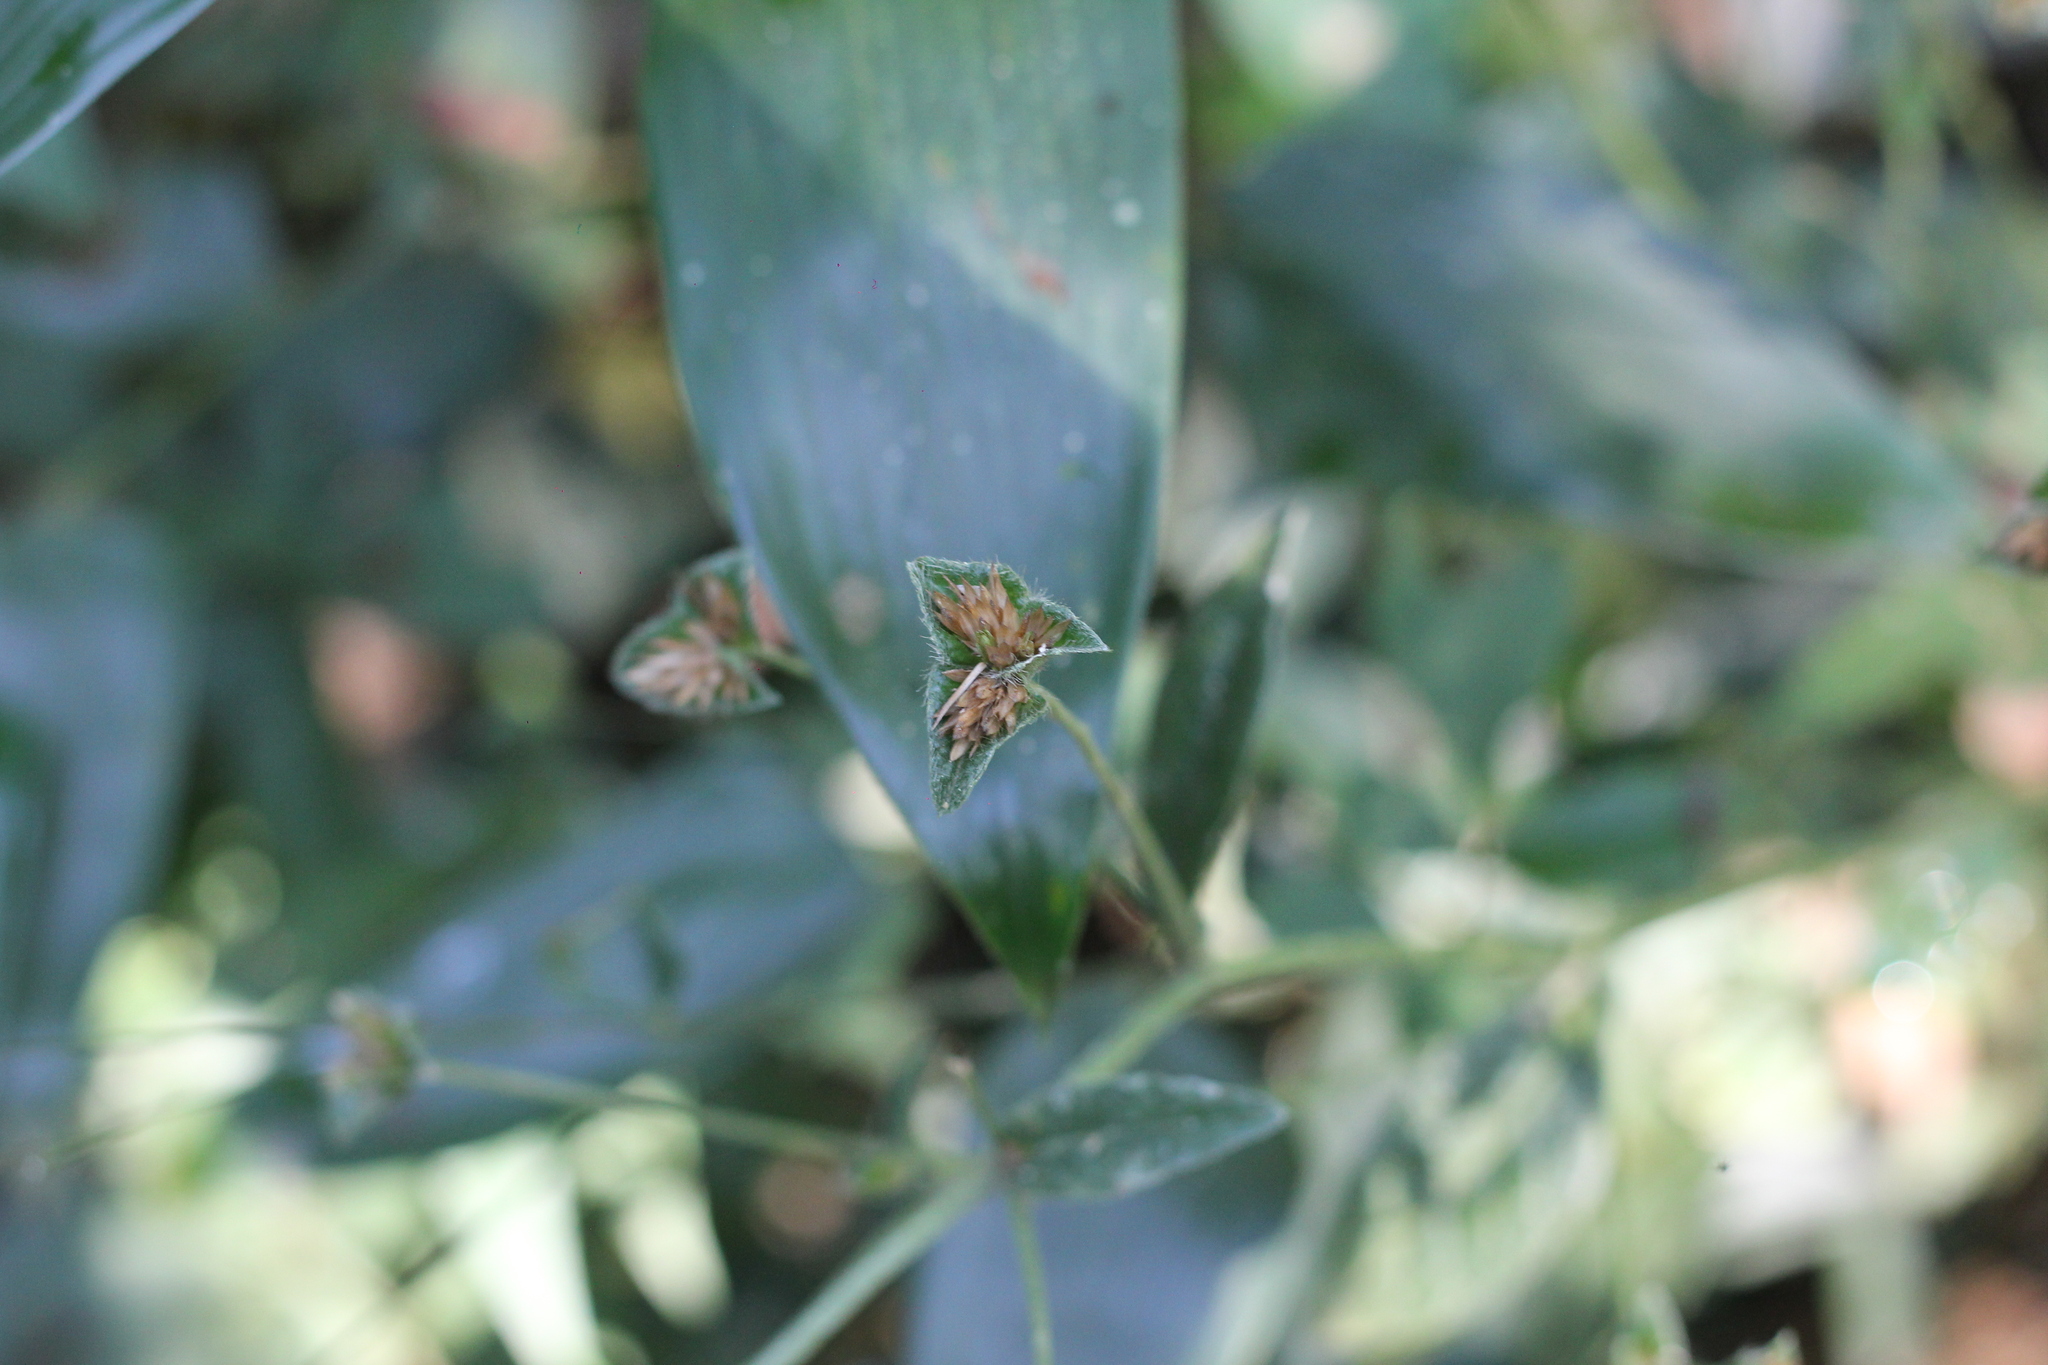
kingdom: Plantae
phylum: Tracheophyta
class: Magnoliopsida
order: Asterales
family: Asteraceae
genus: Elephantopus
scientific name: Elephantopus mollis
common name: Soft elephantsfoot
